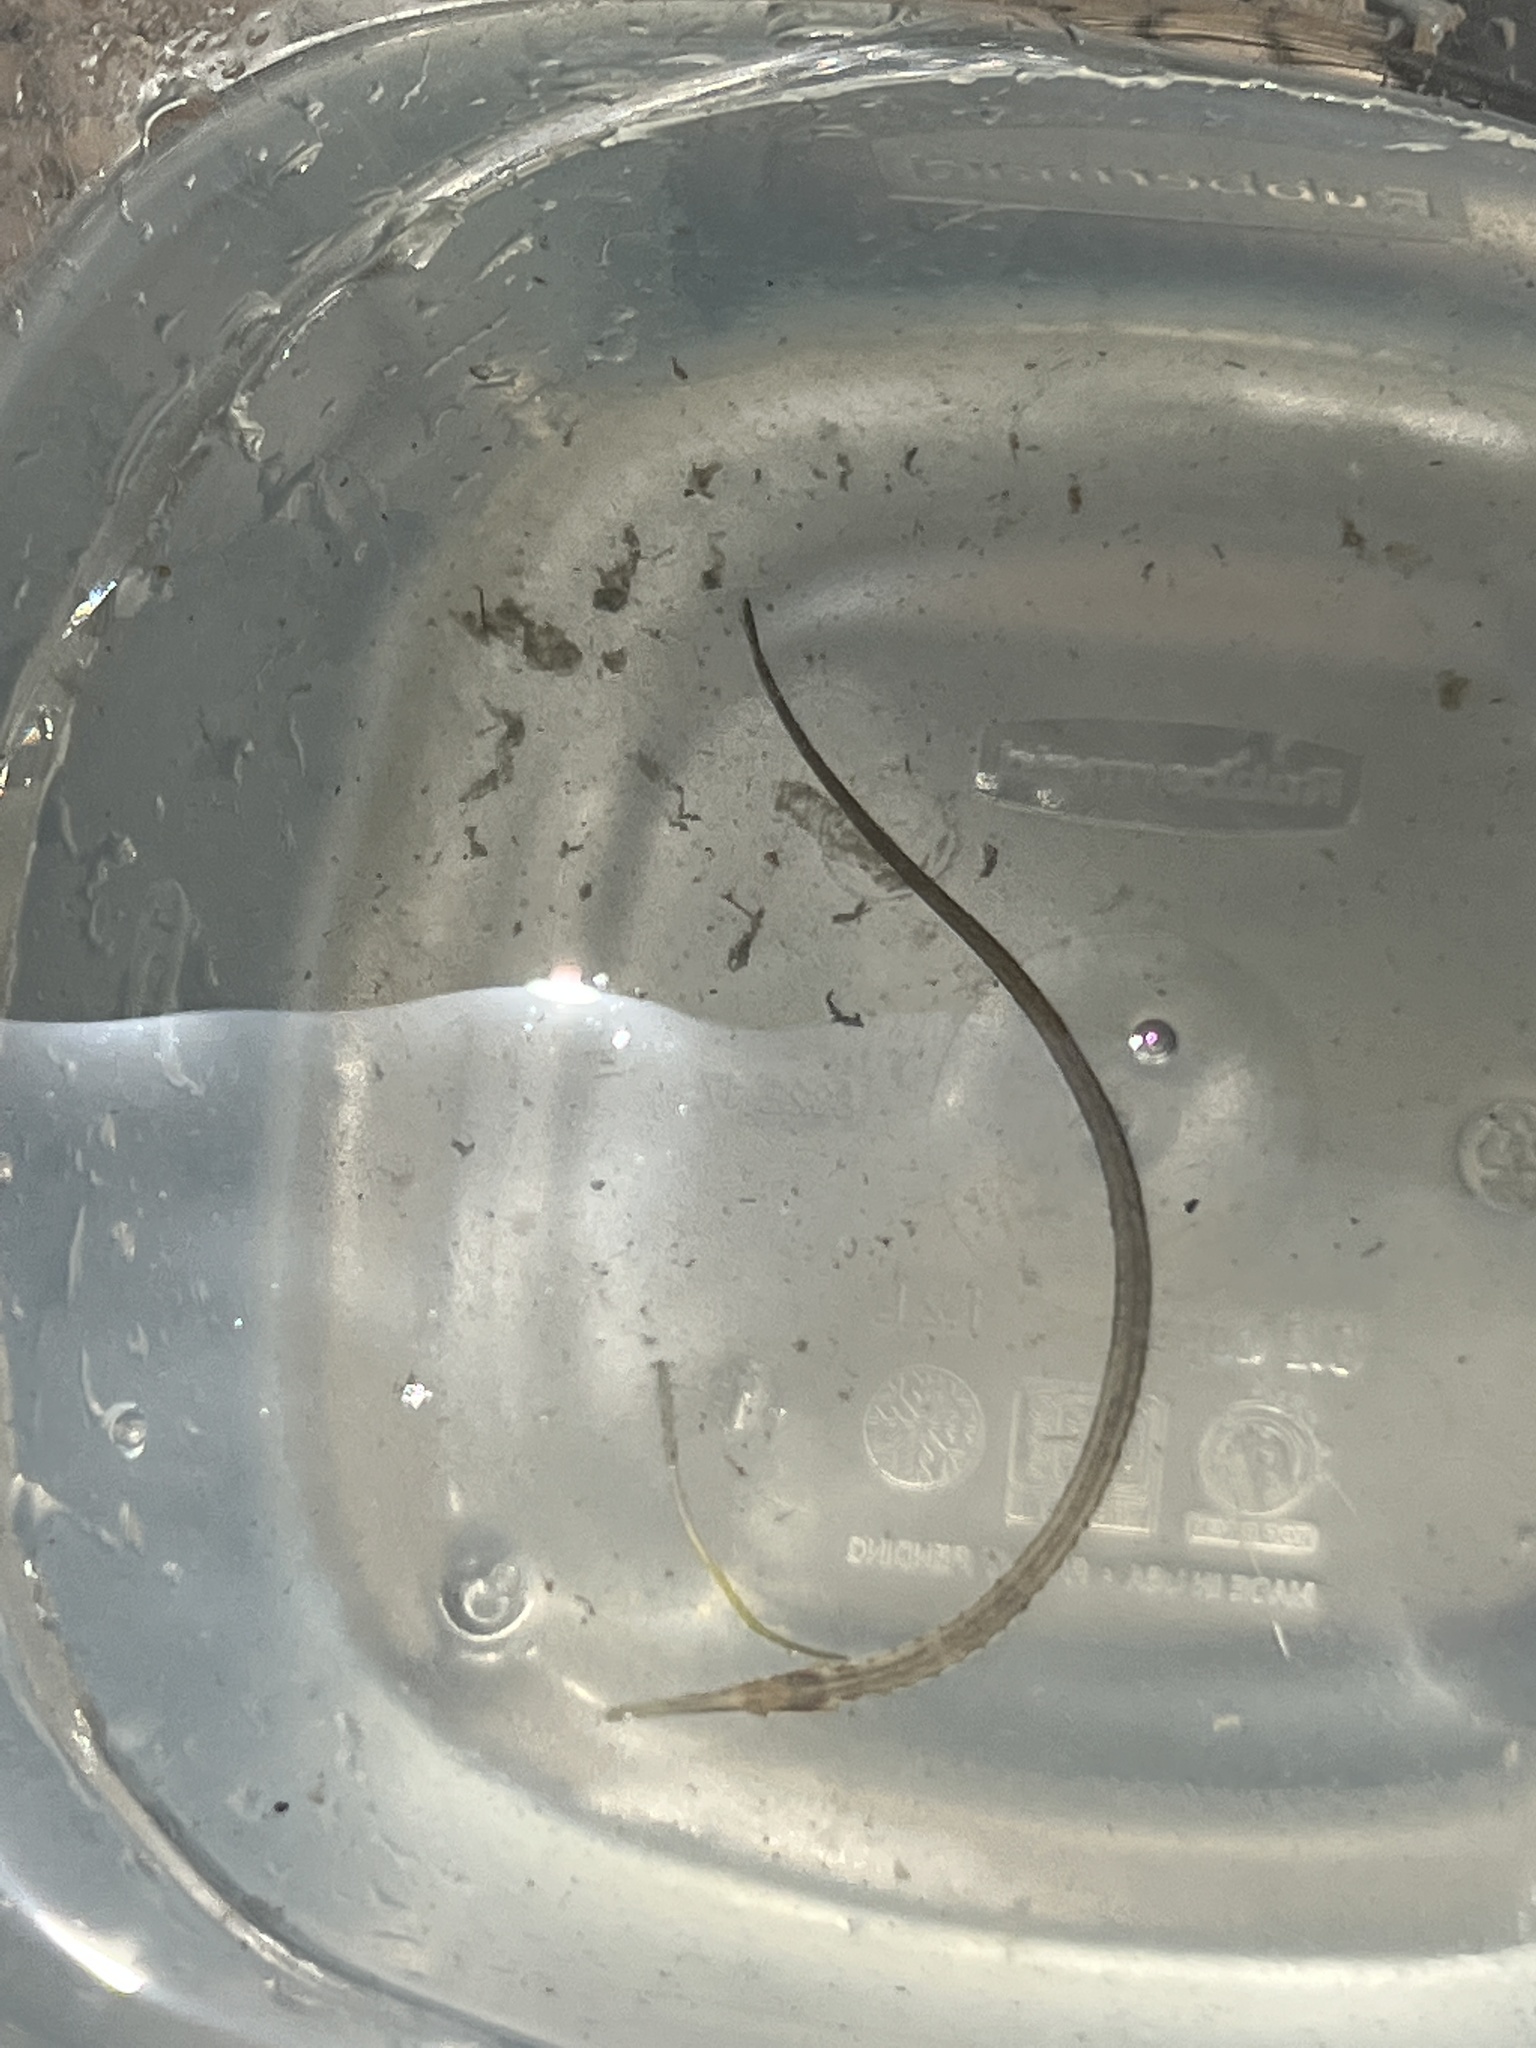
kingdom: Animalia
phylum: Chordata
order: Syngnathiformes
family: Syngnathidae
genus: Syngnathus
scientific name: Syngnathus fuscus
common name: Northern pipefish
